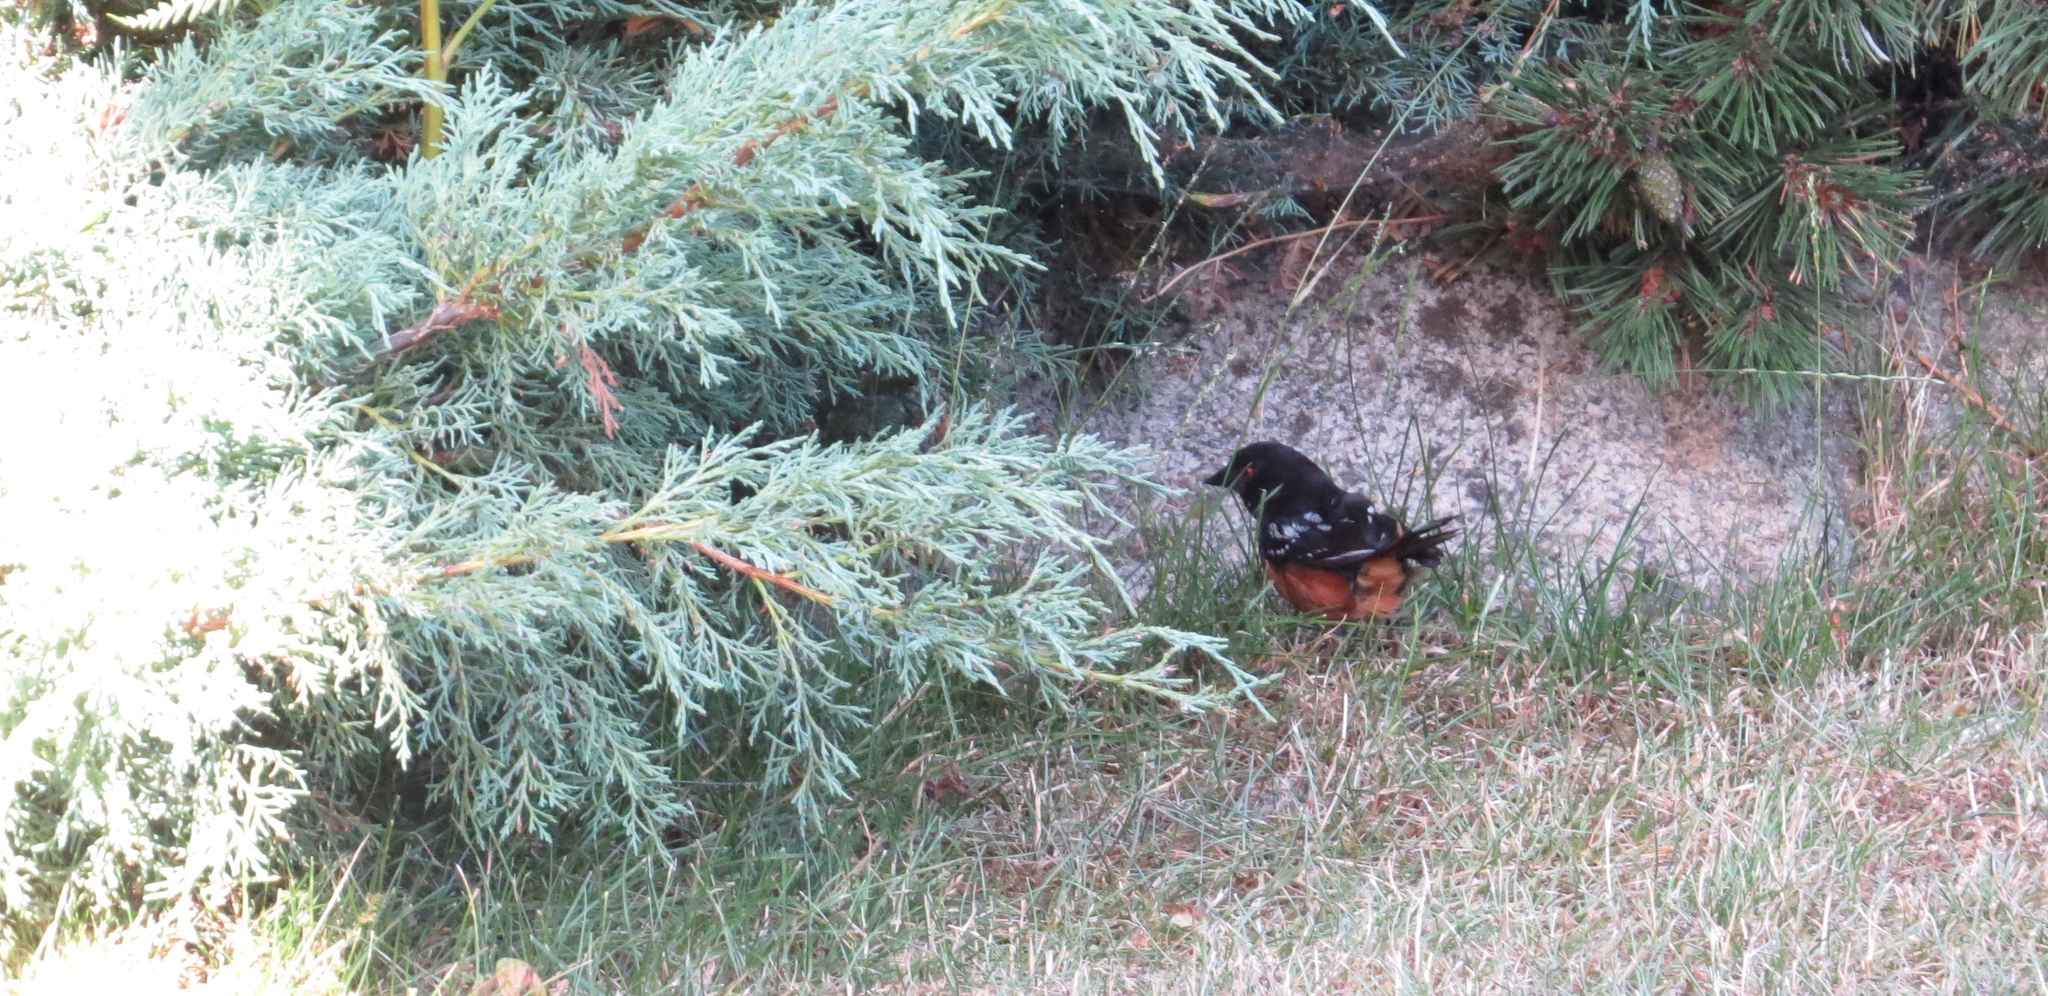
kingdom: Animalia
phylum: Chordata
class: Aves
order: Passeriformes
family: Passerellidae
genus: Pipilo
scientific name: Pipilo maculatus
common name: Spotted towhee
